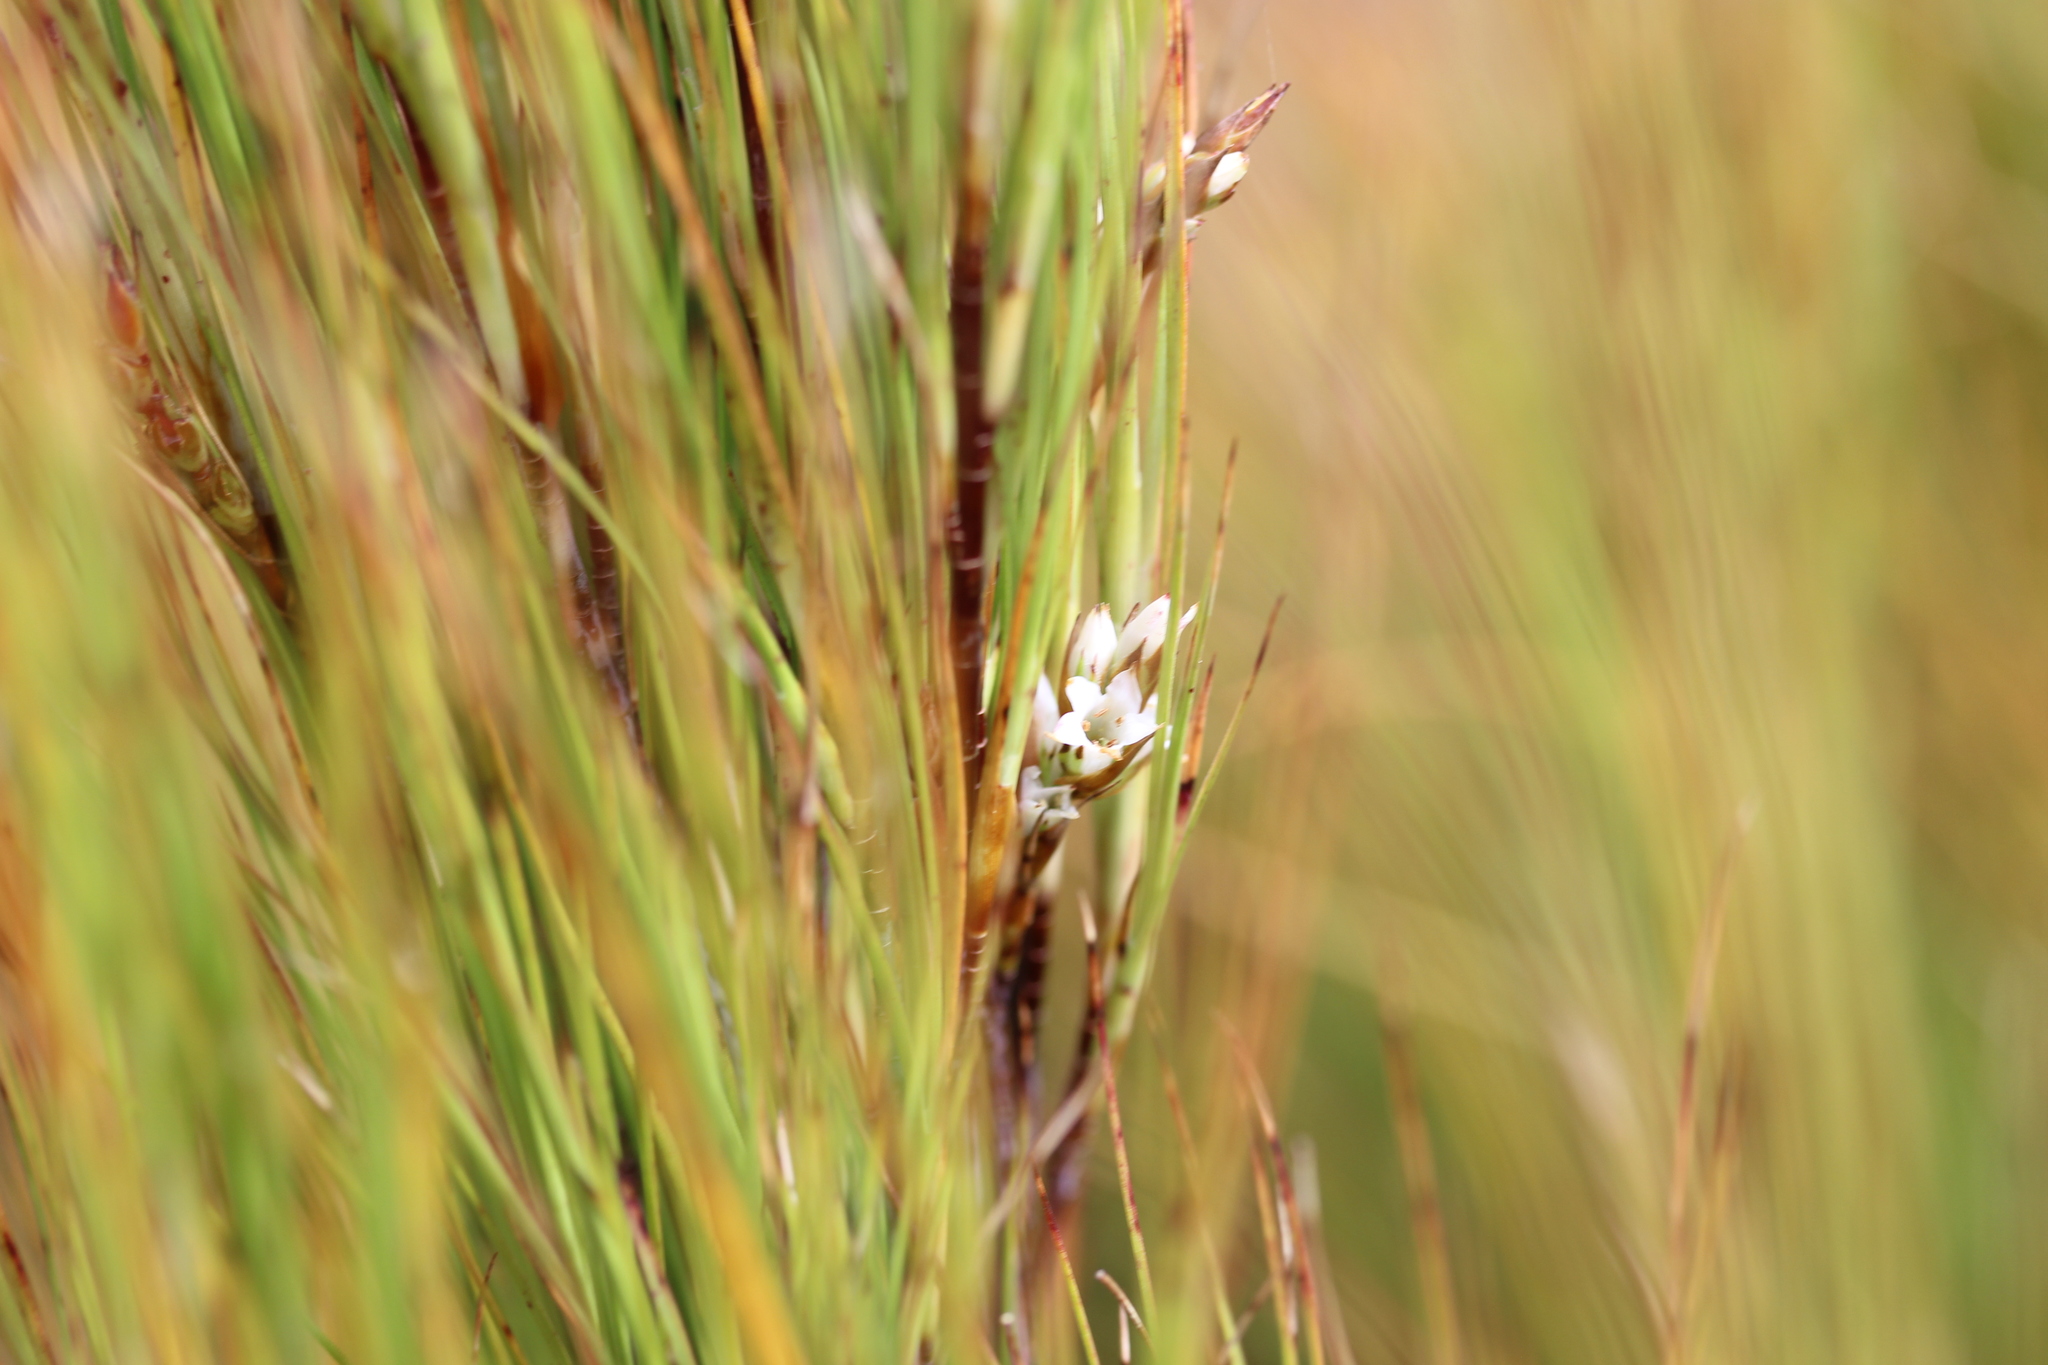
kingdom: Plantae
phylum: Tracheophyta
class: Magnoliopsida
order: Ericales
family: Ericaceae
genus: Dracophyllum
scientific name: Dracophyllum filifolium
